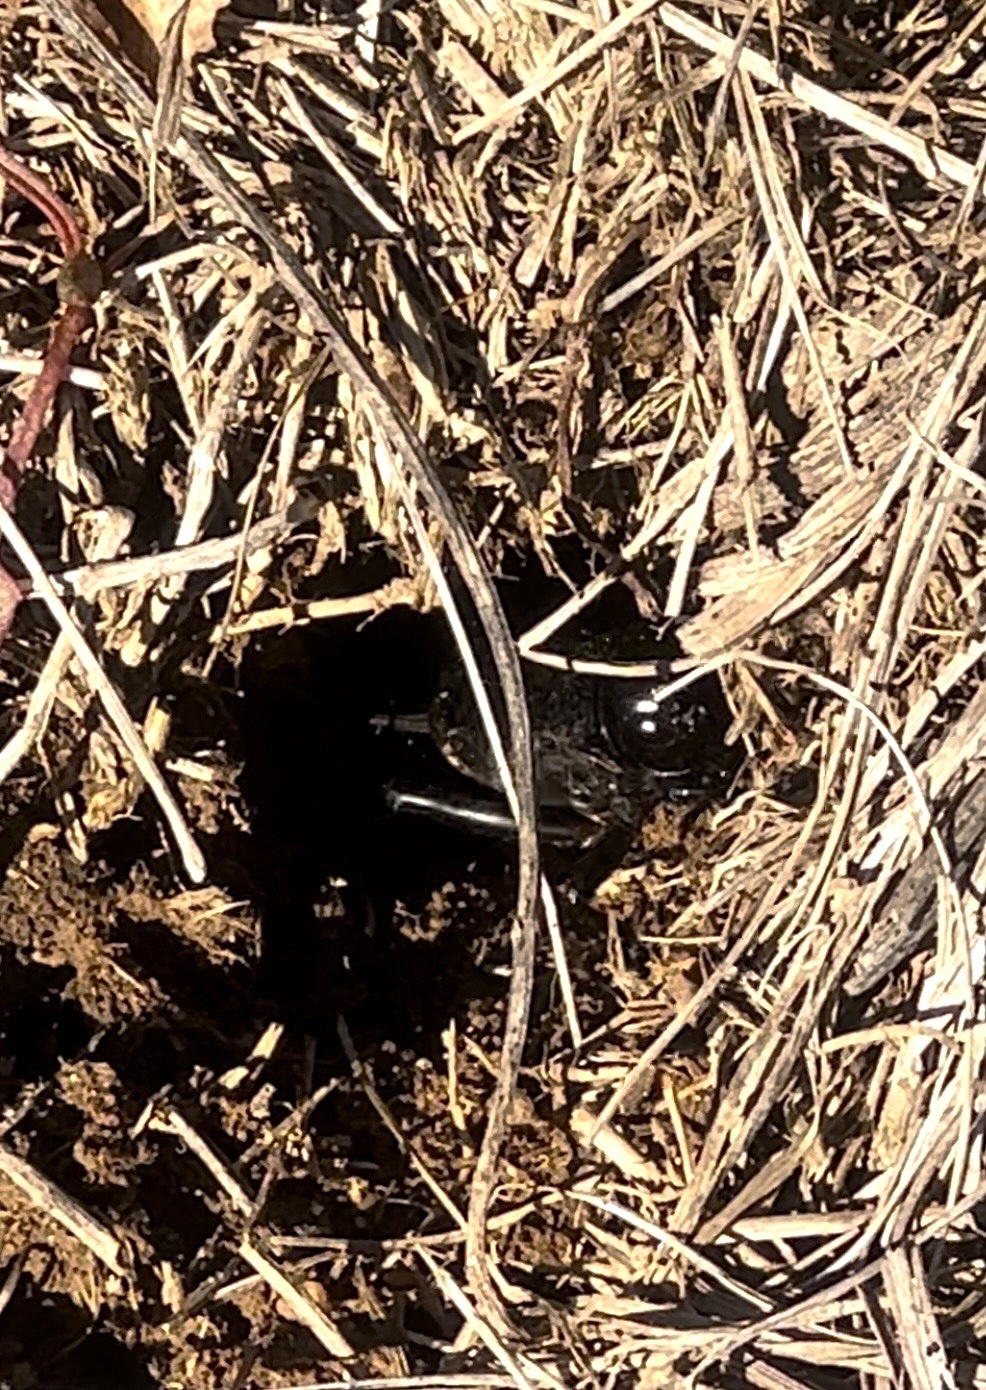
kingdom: Animalia
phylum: Arthropoda
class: Insecta
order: Orthoptera
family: Gryllidae
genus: Gryllus
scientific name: Gryllus campestris
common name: Field cricket
